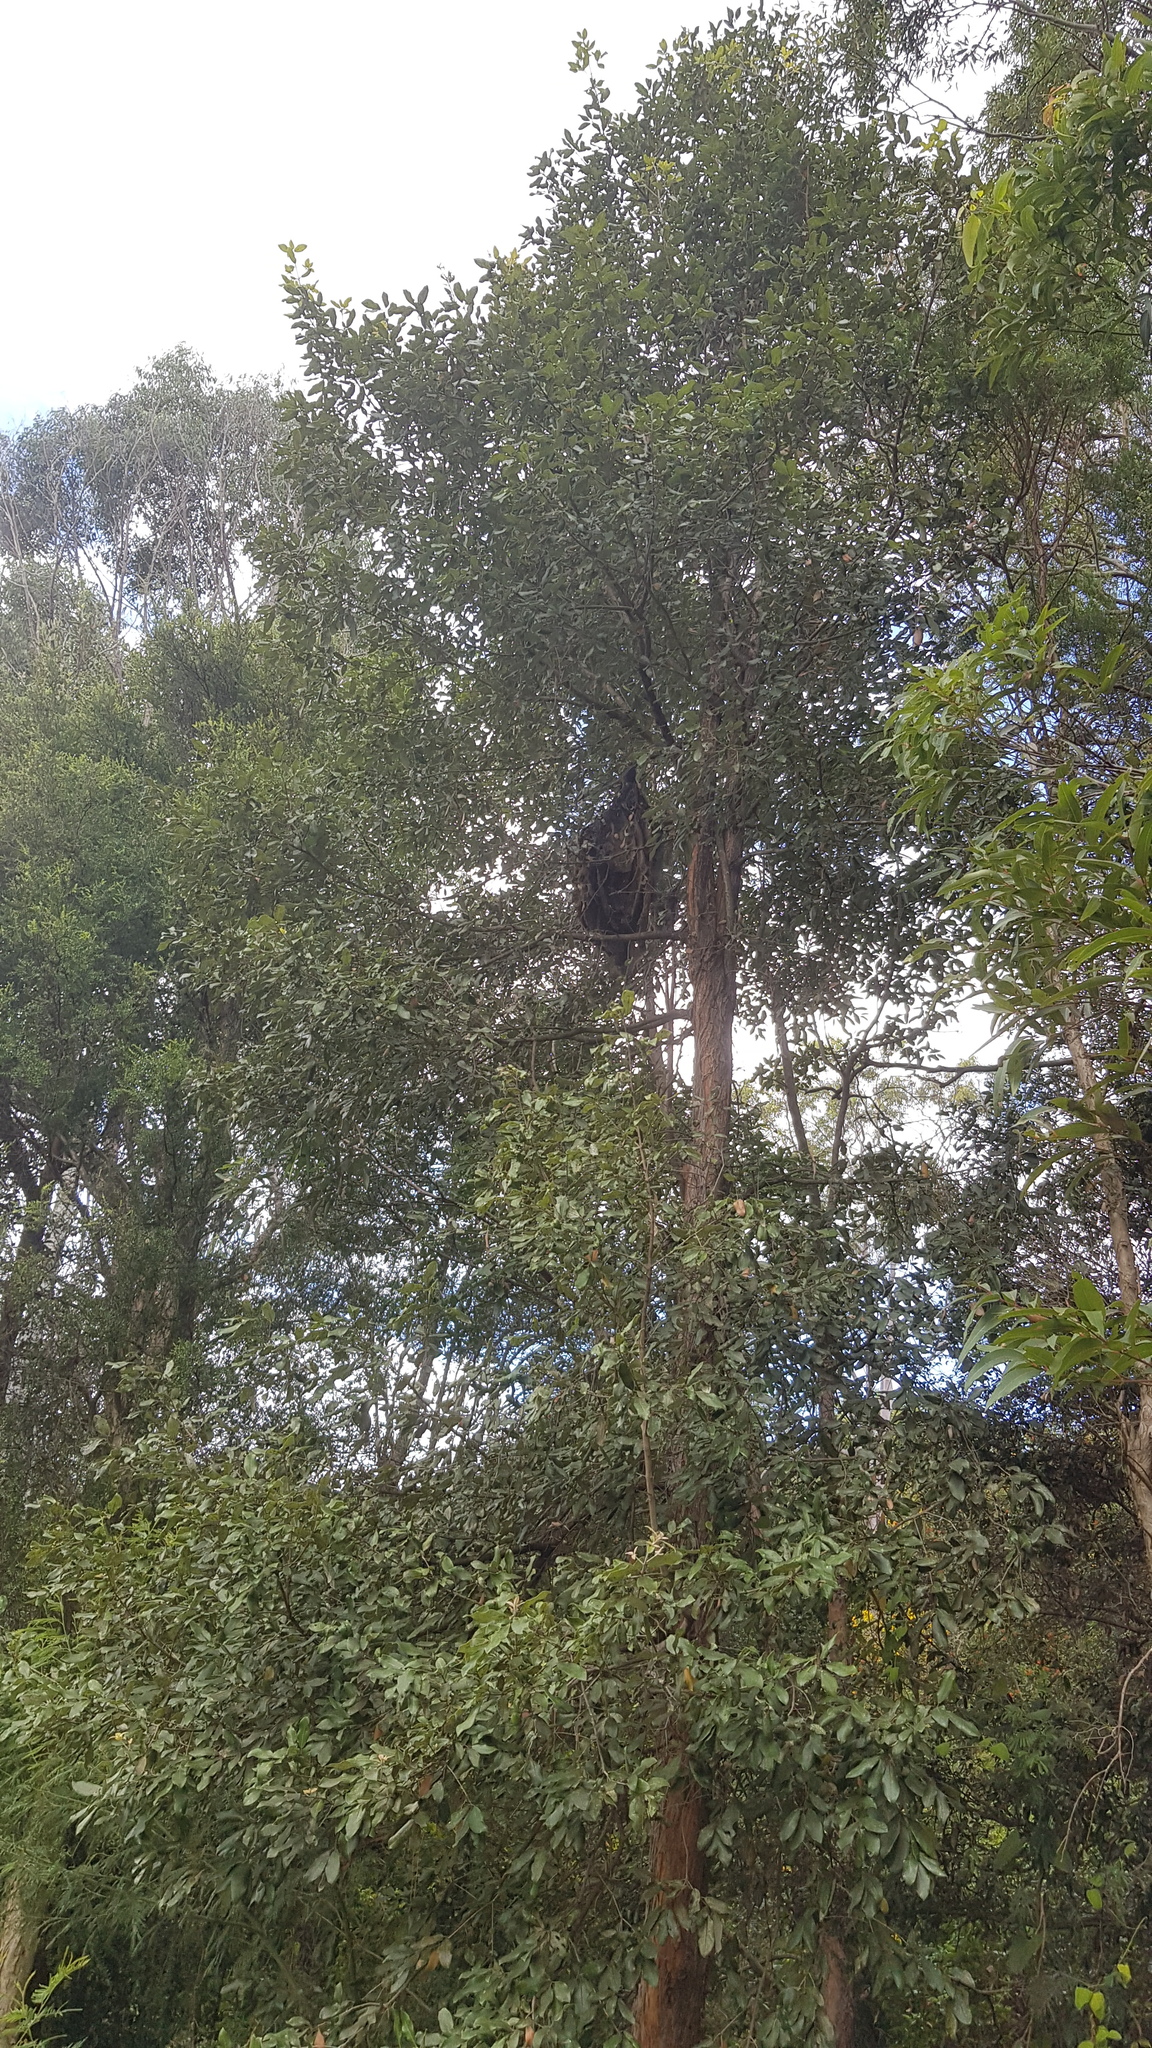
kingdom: Animalia
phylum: Arthropoda
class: Insecta
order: Hymenoptera
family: Apidae
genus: Apis
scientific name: Apis mellifera
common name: Honey bee
